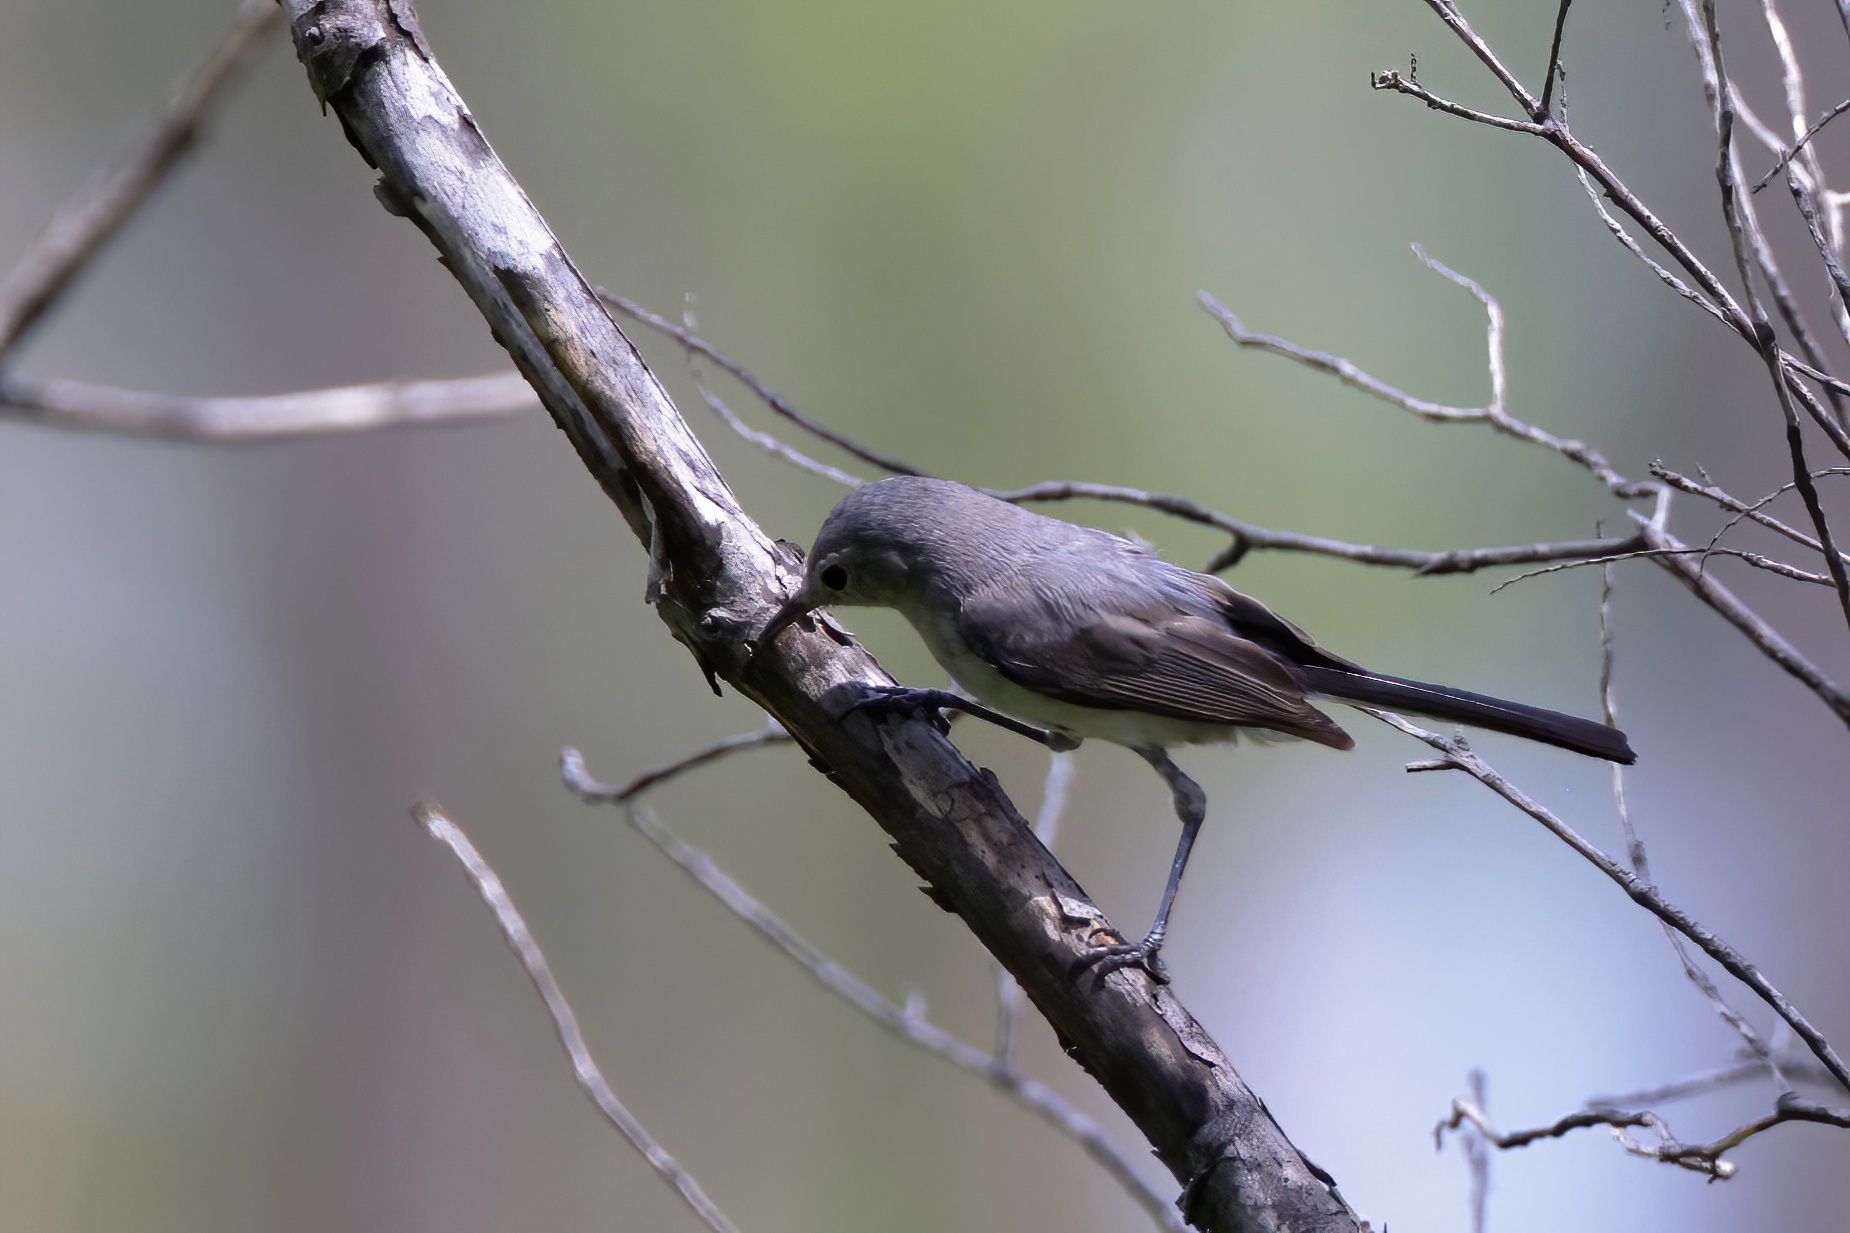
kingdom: Animalia
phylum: Chordata
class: Aves
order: Passeriformes
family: Polioptilidae
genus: Polioptila
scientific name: Polioptila caerulea
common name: Blue-gray gnatcatcher
